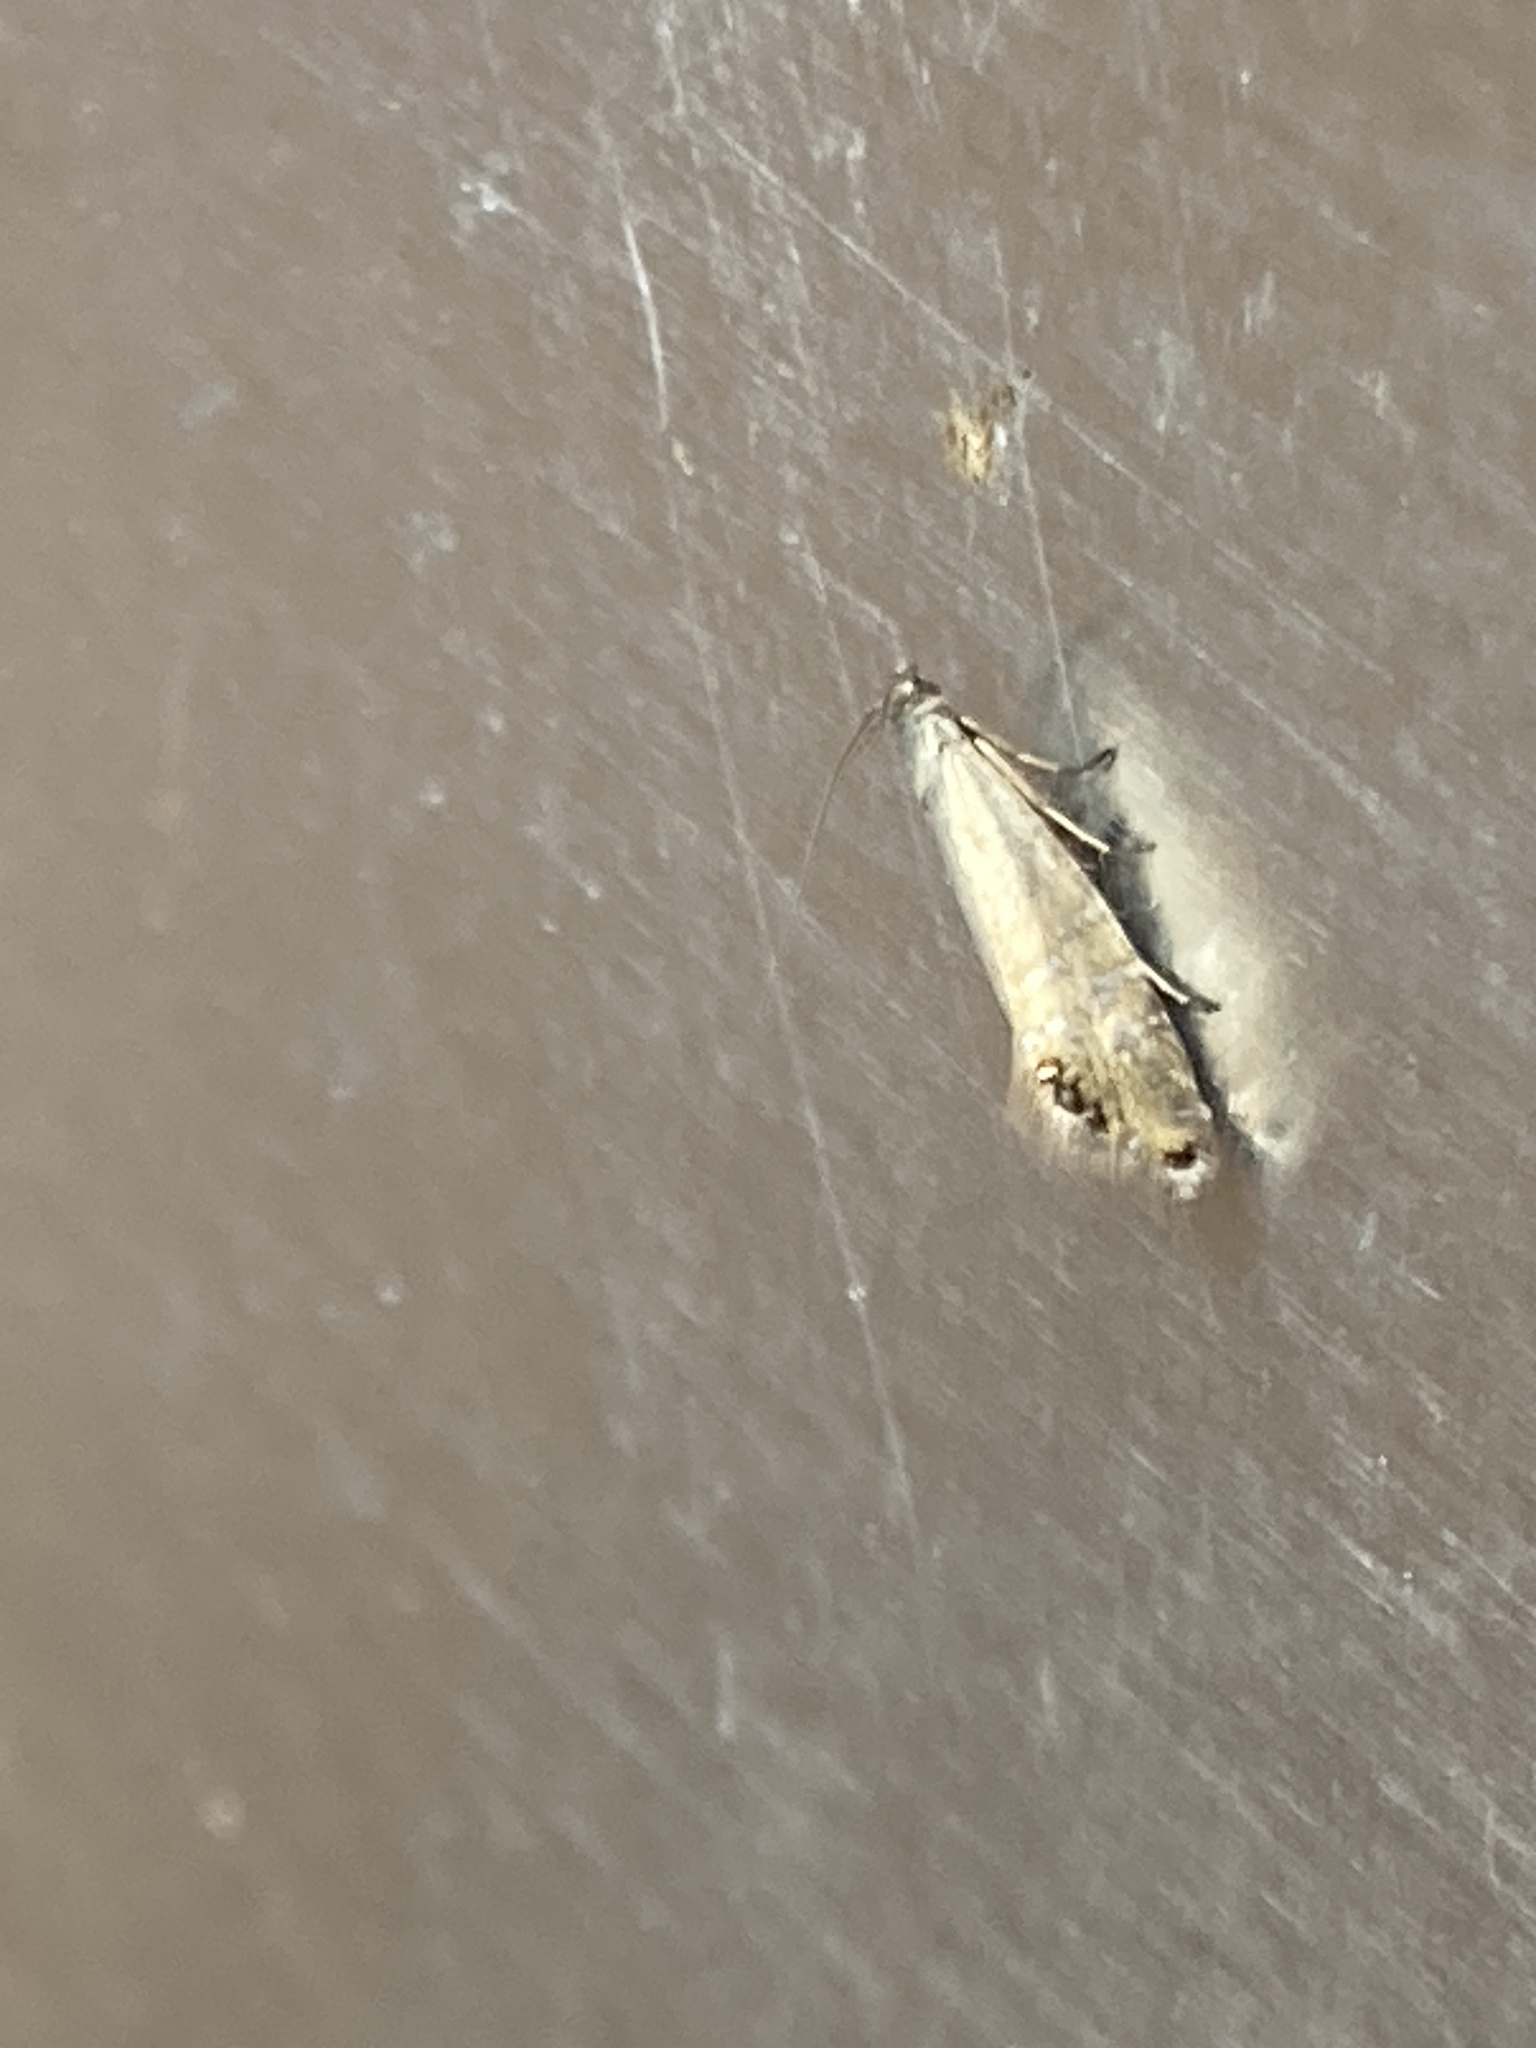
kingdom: Animalia
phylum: Arthropoda
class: Insecta
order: Lepidoptera
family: Glyphipterigidae
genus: Glyphipterix
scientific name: Glyphipterix thrasonella
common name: Speckled fanner
